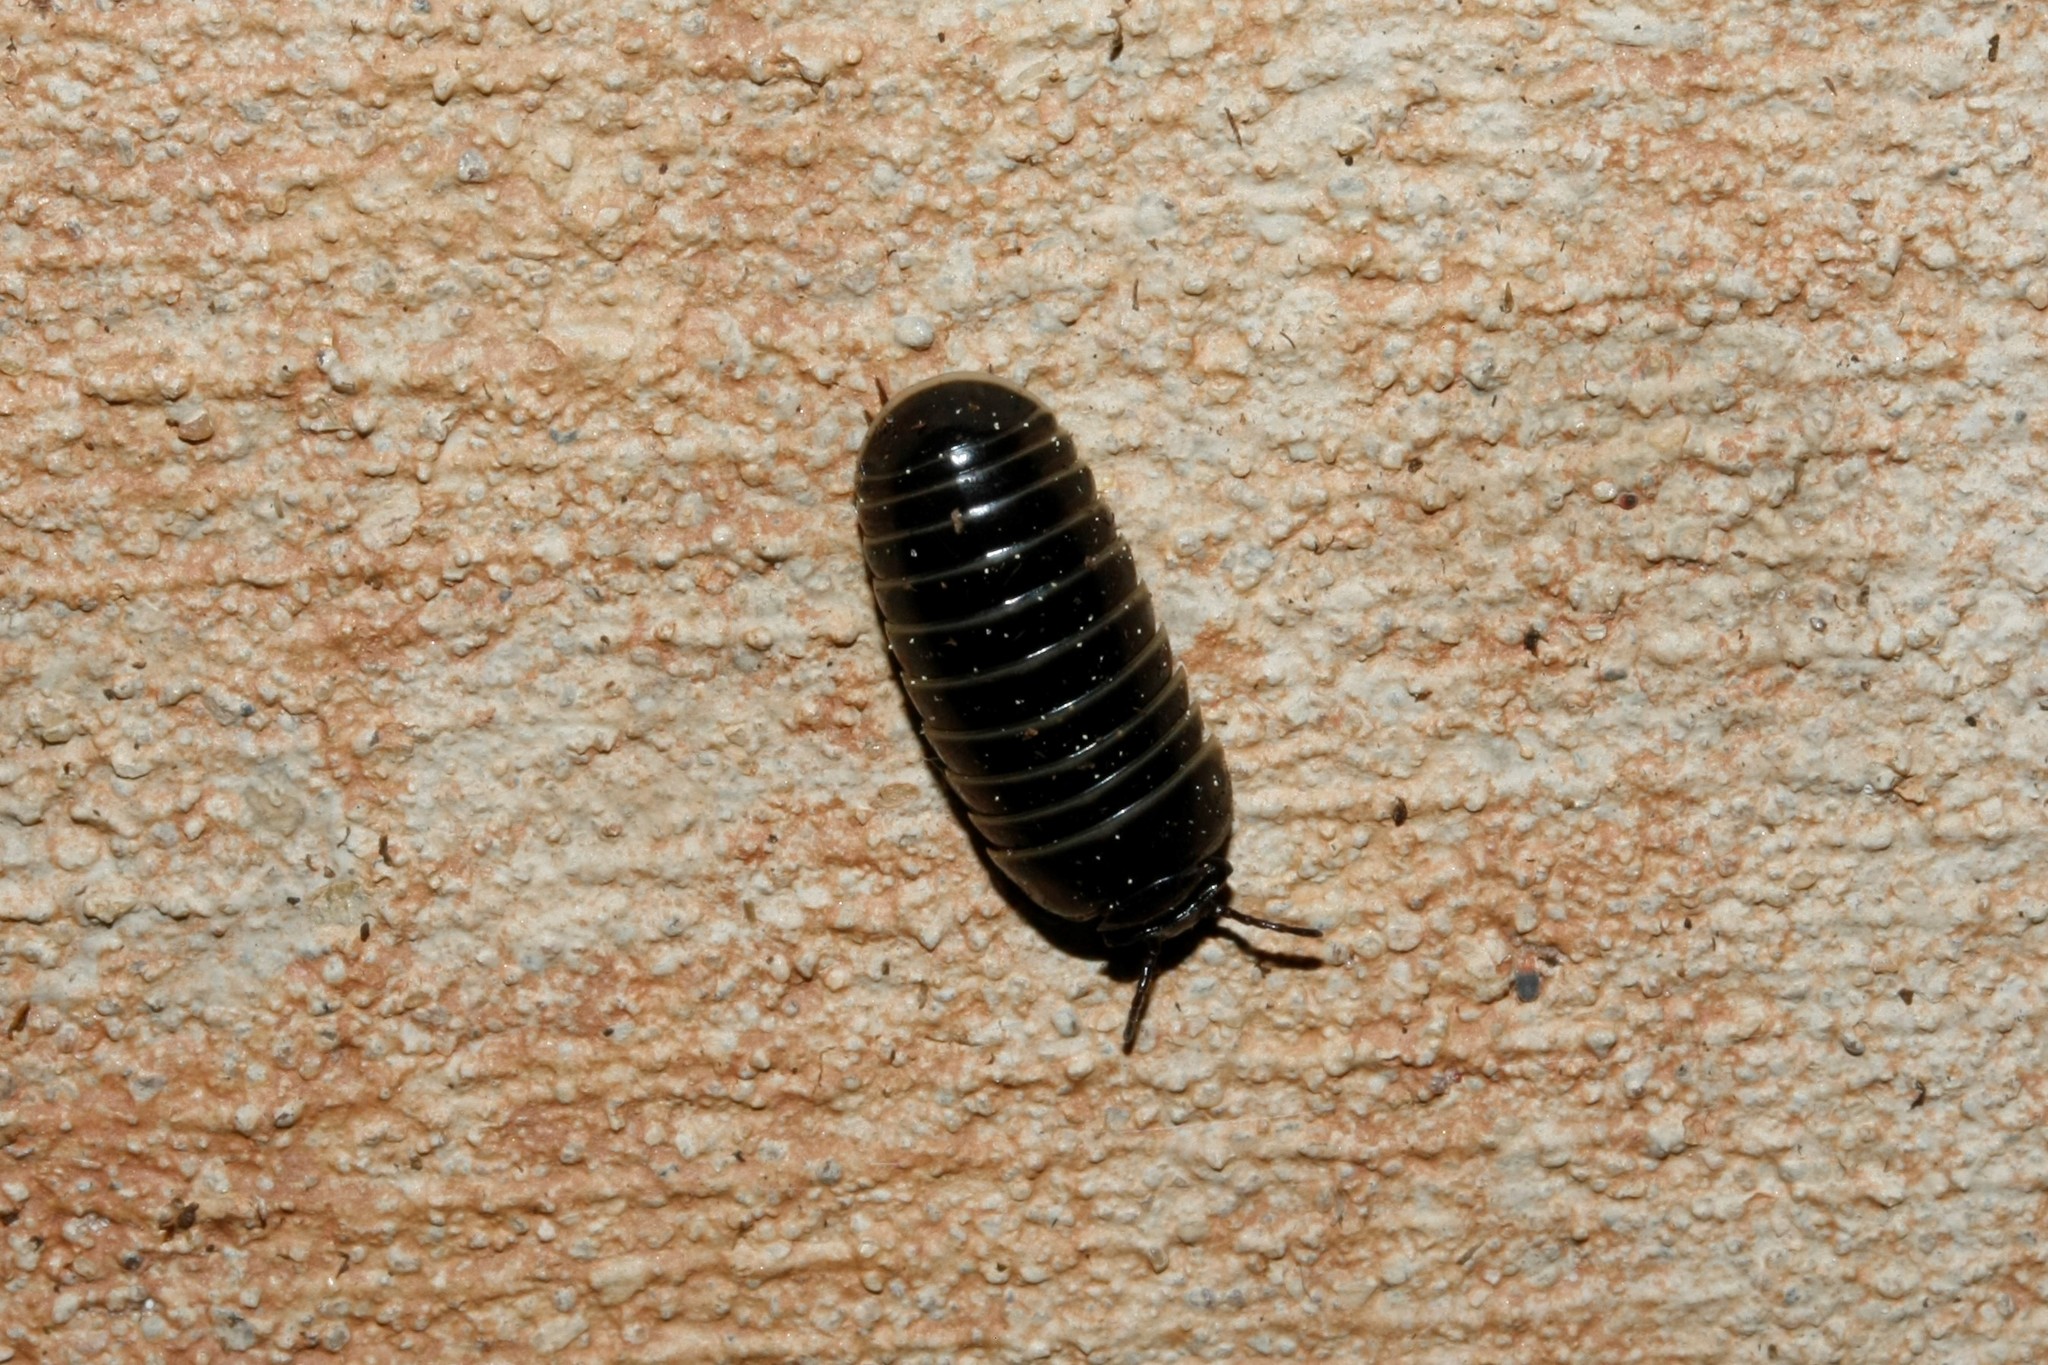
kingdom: Animalia
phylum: Arthropoda
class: Diplopoda
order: Glomerida
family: Glomeridae
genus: Glomeris
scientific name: Glomeris marginata
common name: Bordered pill millipede
